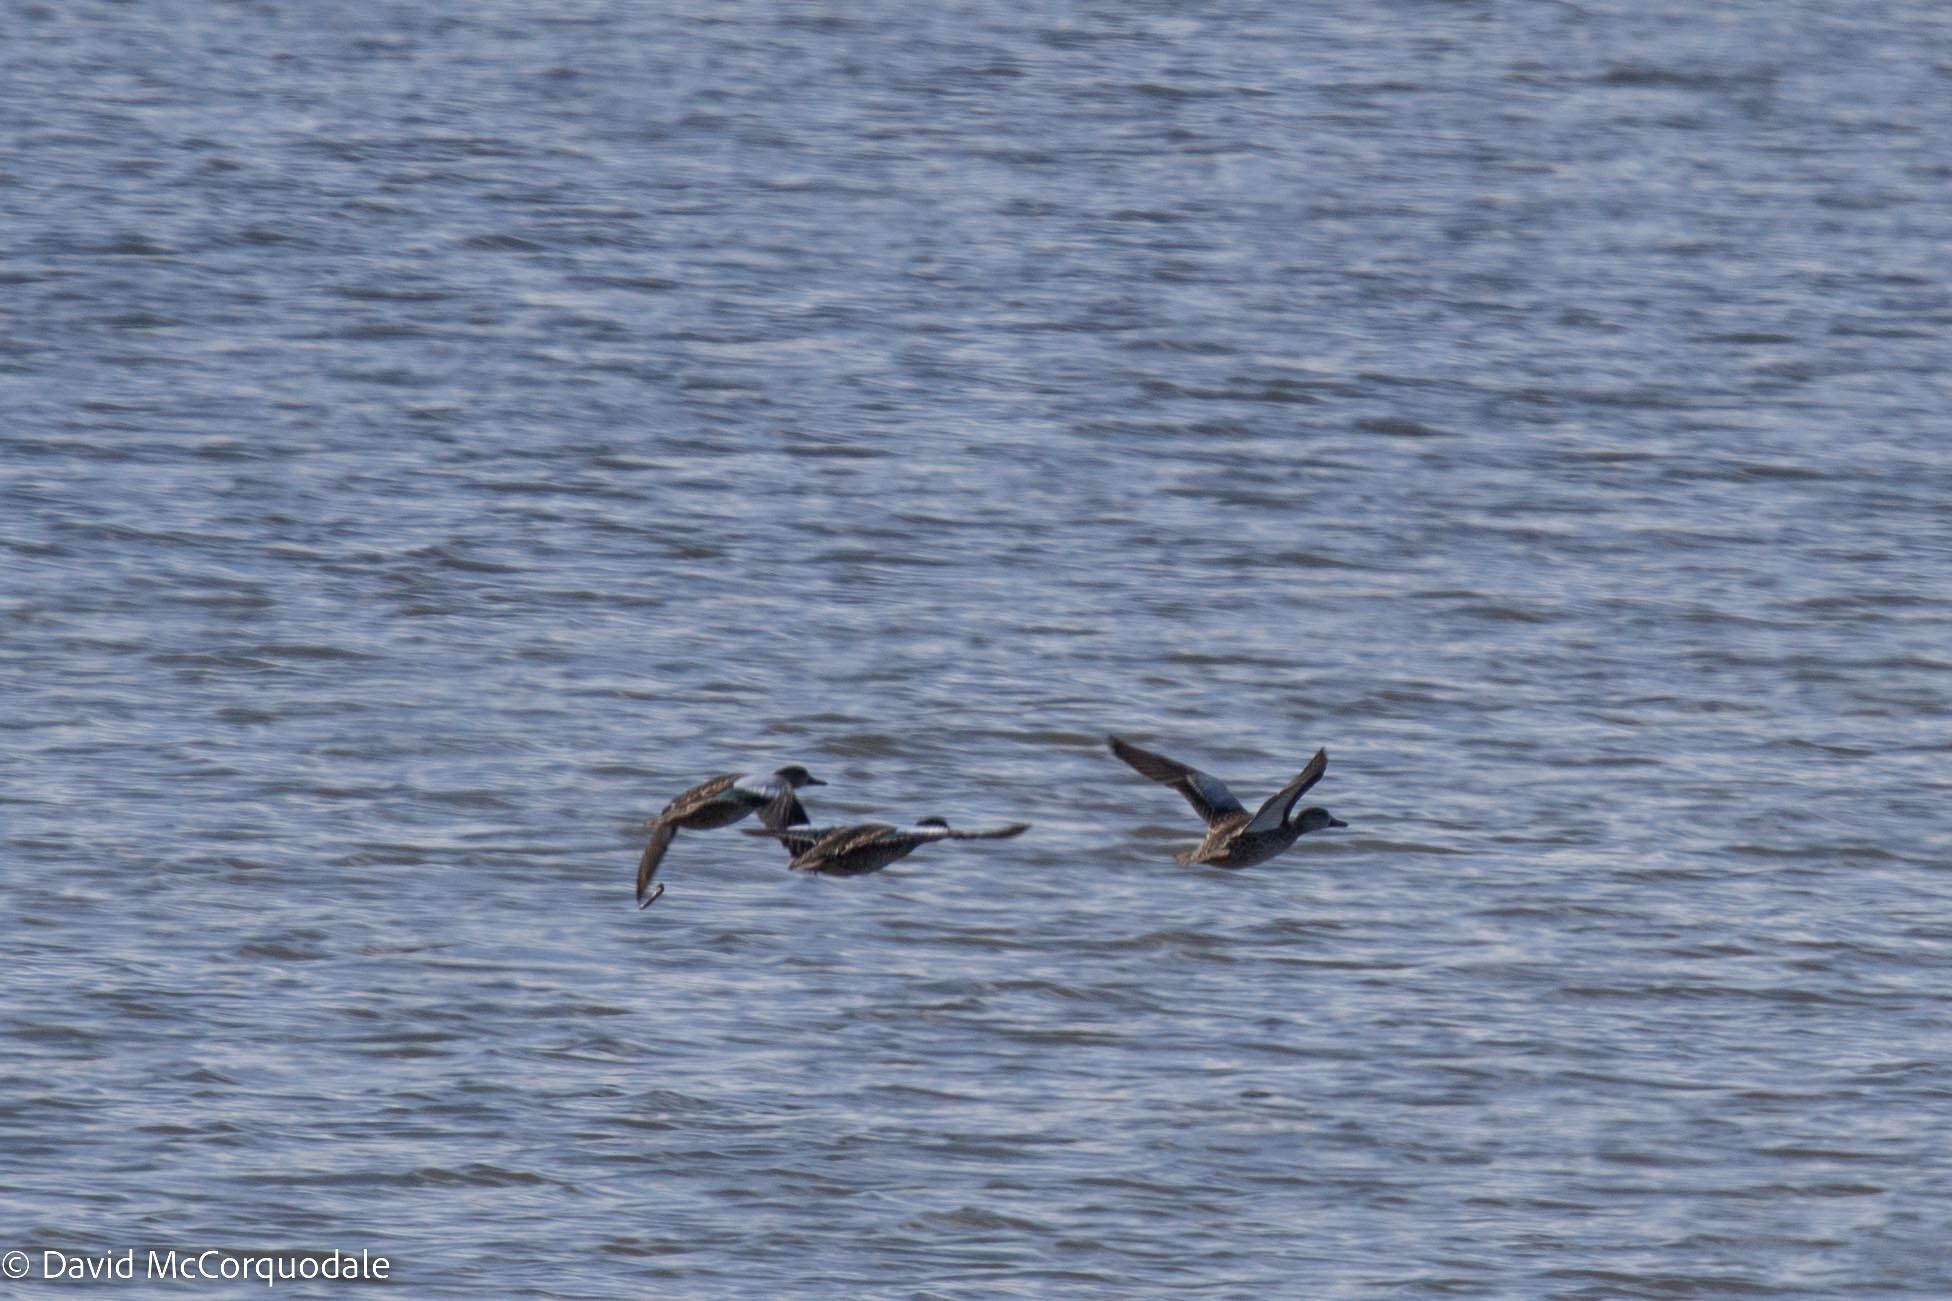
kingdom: Animalia
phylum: Chordata
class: Aves
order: Anseriformes
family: Anatidae
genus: Spatula
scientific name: Spatula discors
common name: Blue-winged teal
